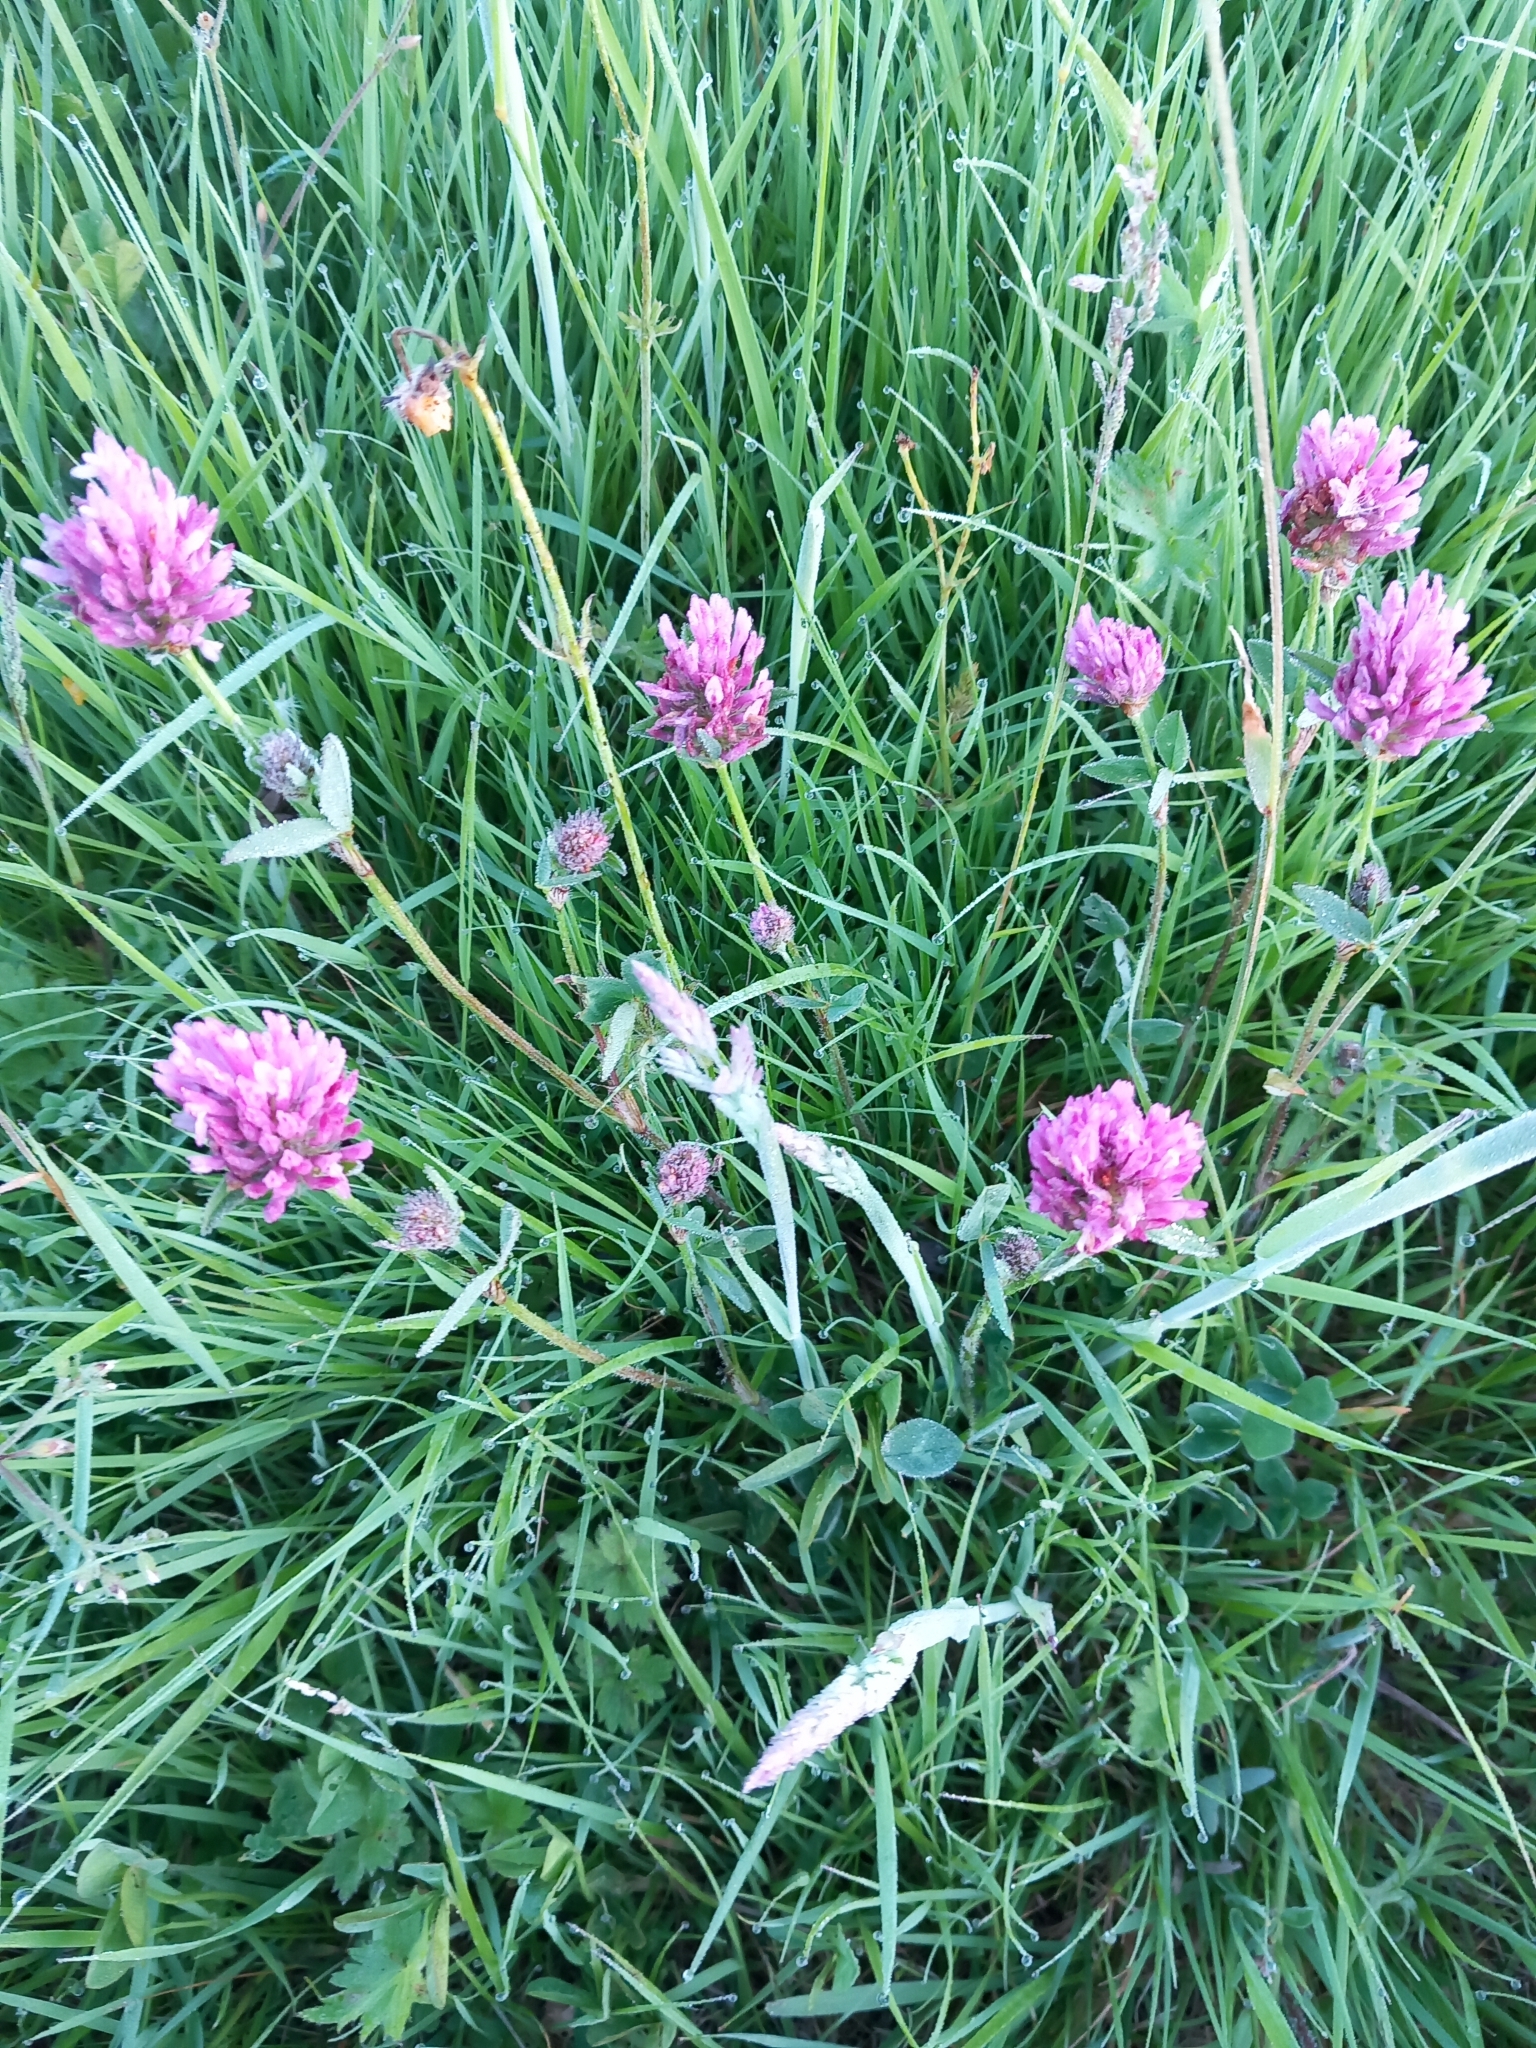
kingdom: Plantae
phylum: Tracheophyta
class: Magnoliopsida
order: Fabales
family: Fabaceae
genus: Trifolium
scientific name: Trifolium pratense
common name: Red clover
